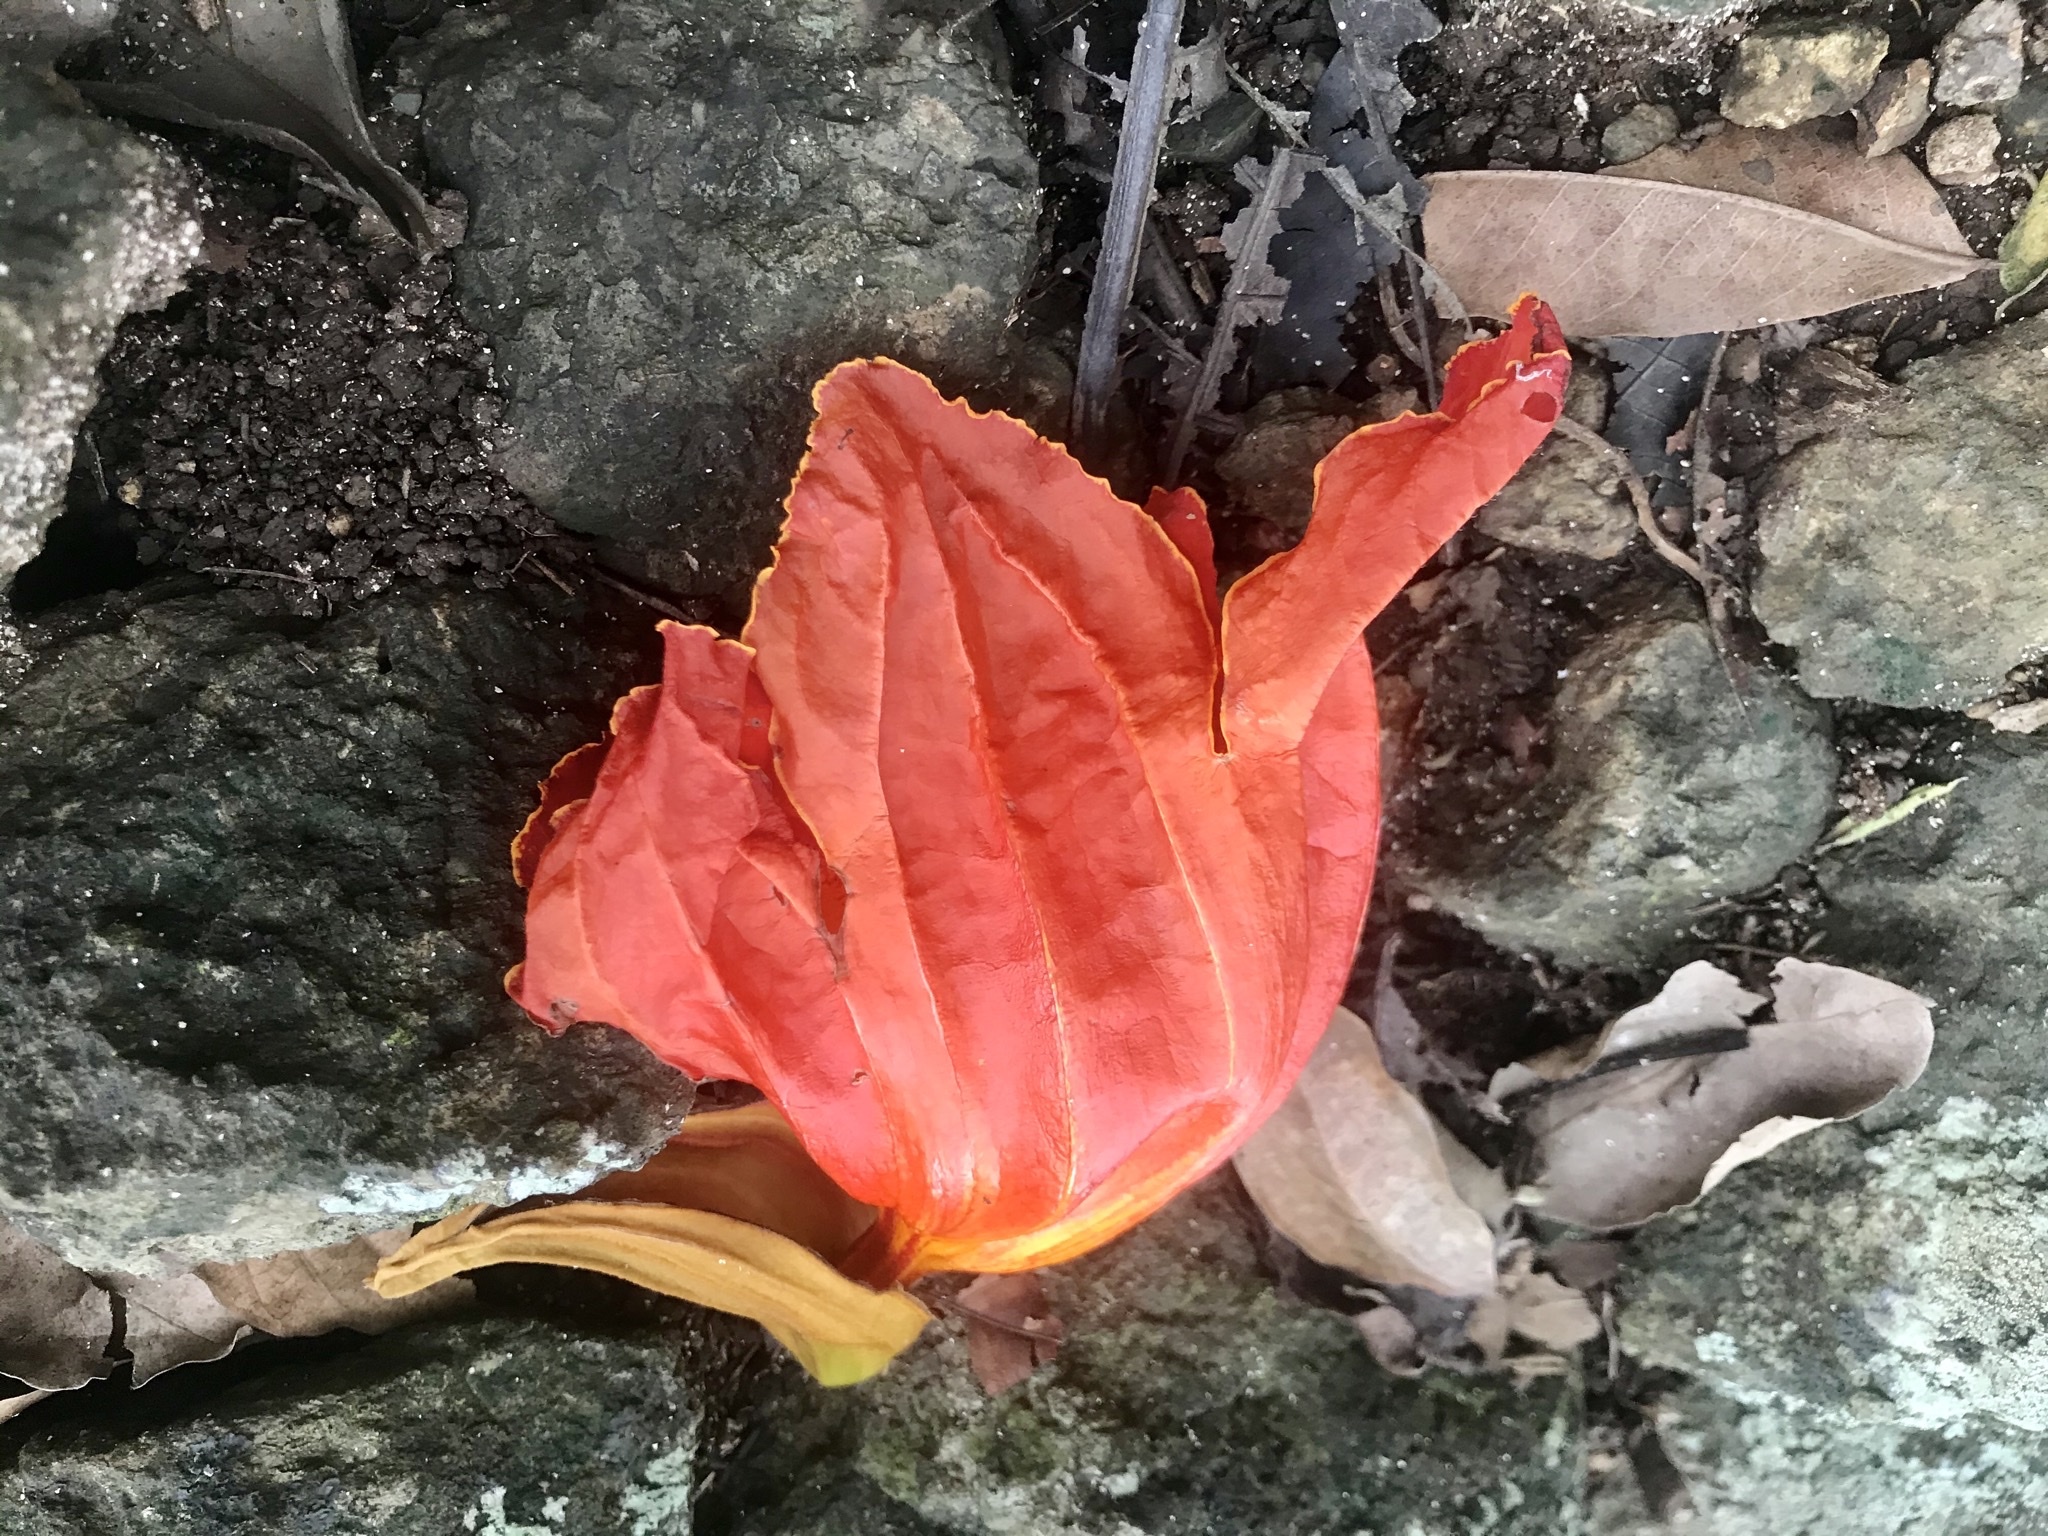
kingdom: Plantae
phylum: Tracheophyta
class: Magnoliopsida
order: Lamiales
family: Bignoniaceae
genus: Spathodea
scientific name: Spathodea campanulata
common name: African tuliptree
